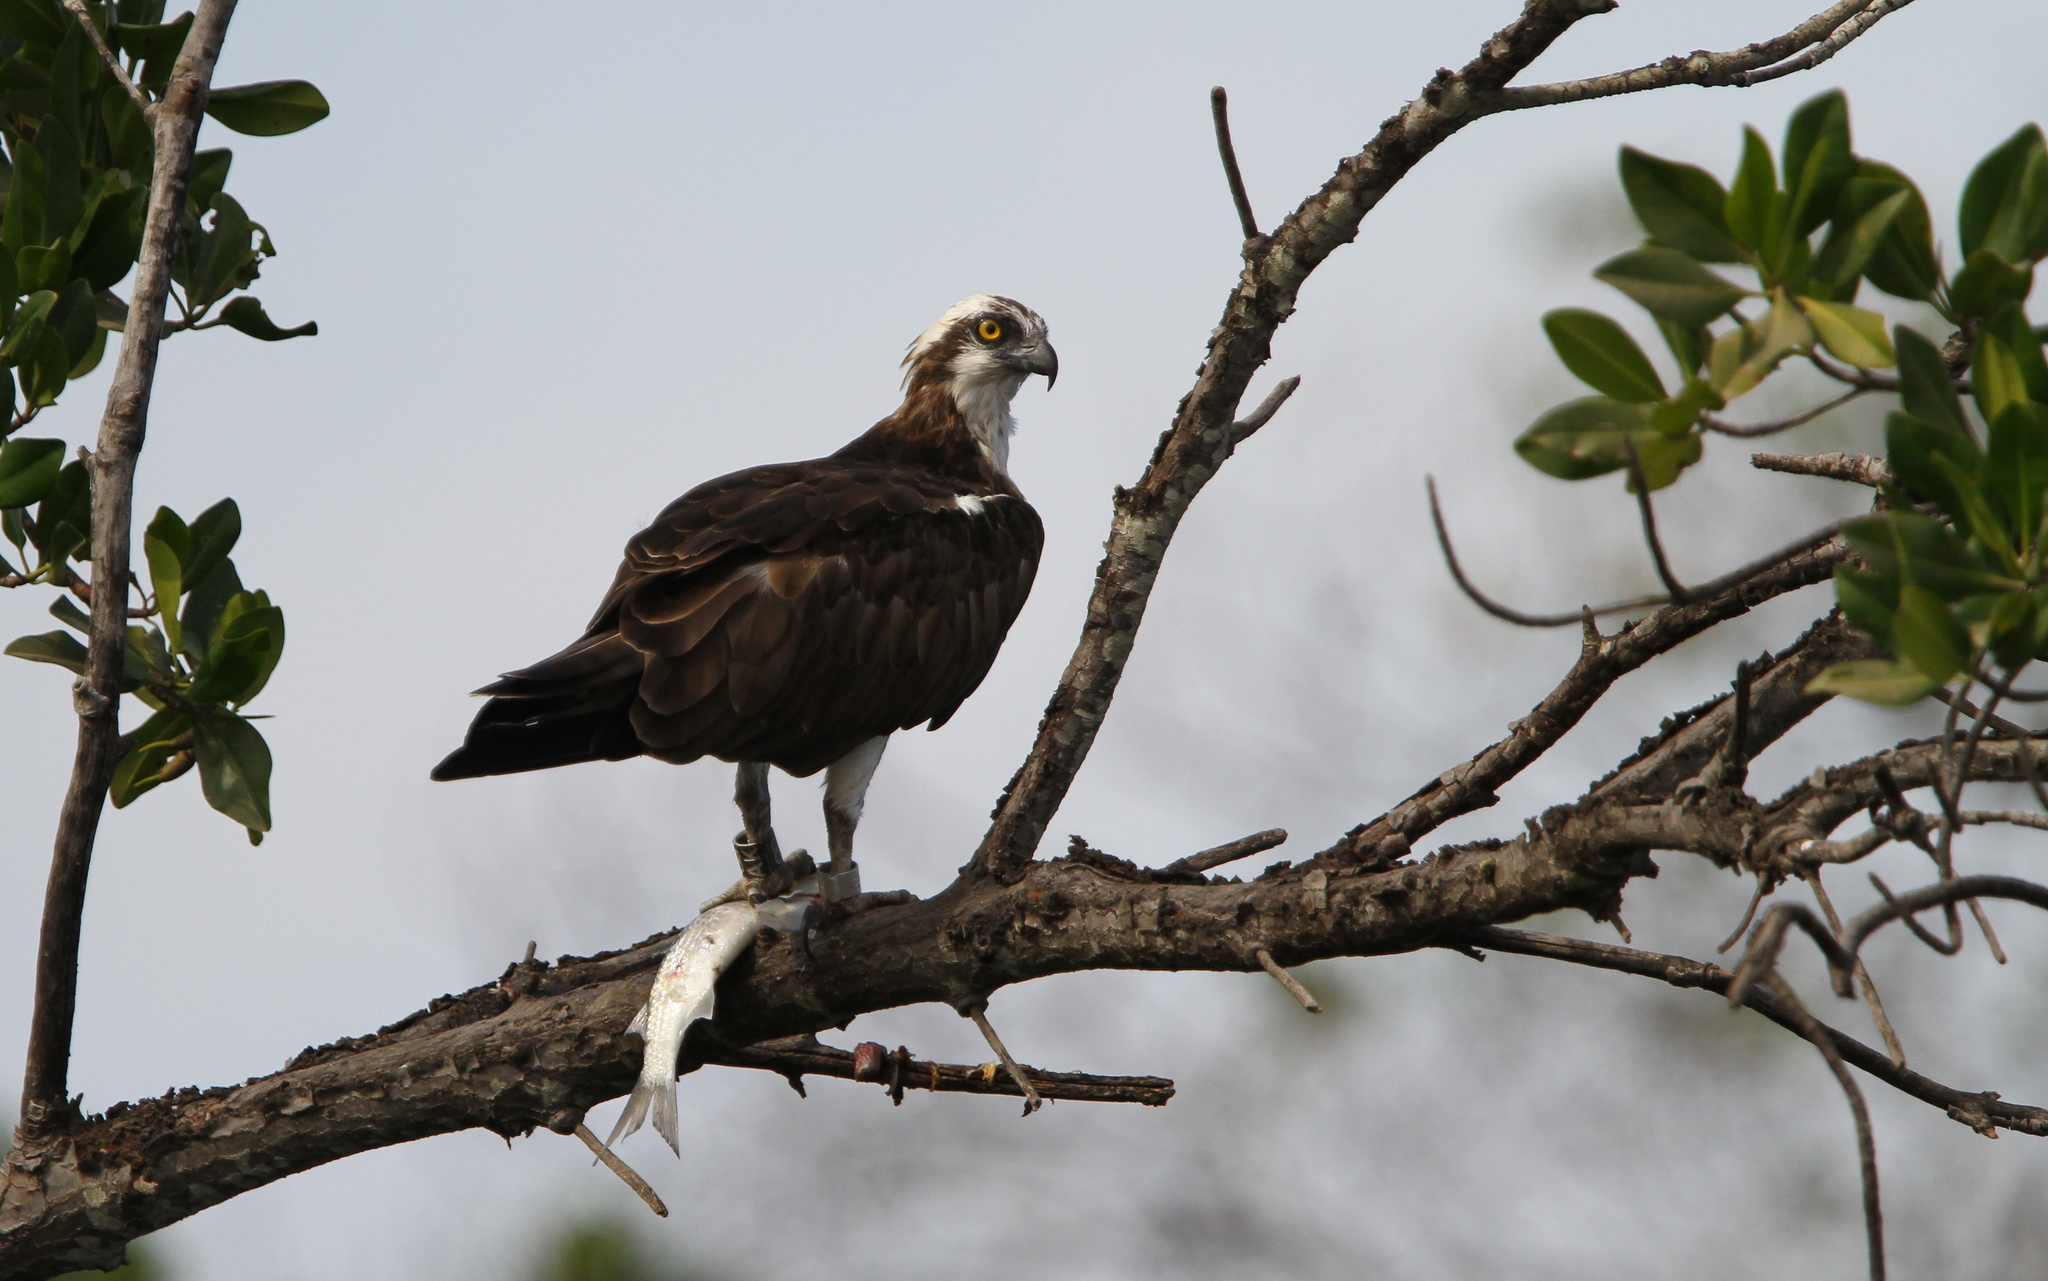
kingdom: Animalia
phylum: Chordata
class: Aves
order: Accipitriformes
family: Pandionidae
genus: Pandion
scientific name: Pandion haliaetus
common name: Osprey
